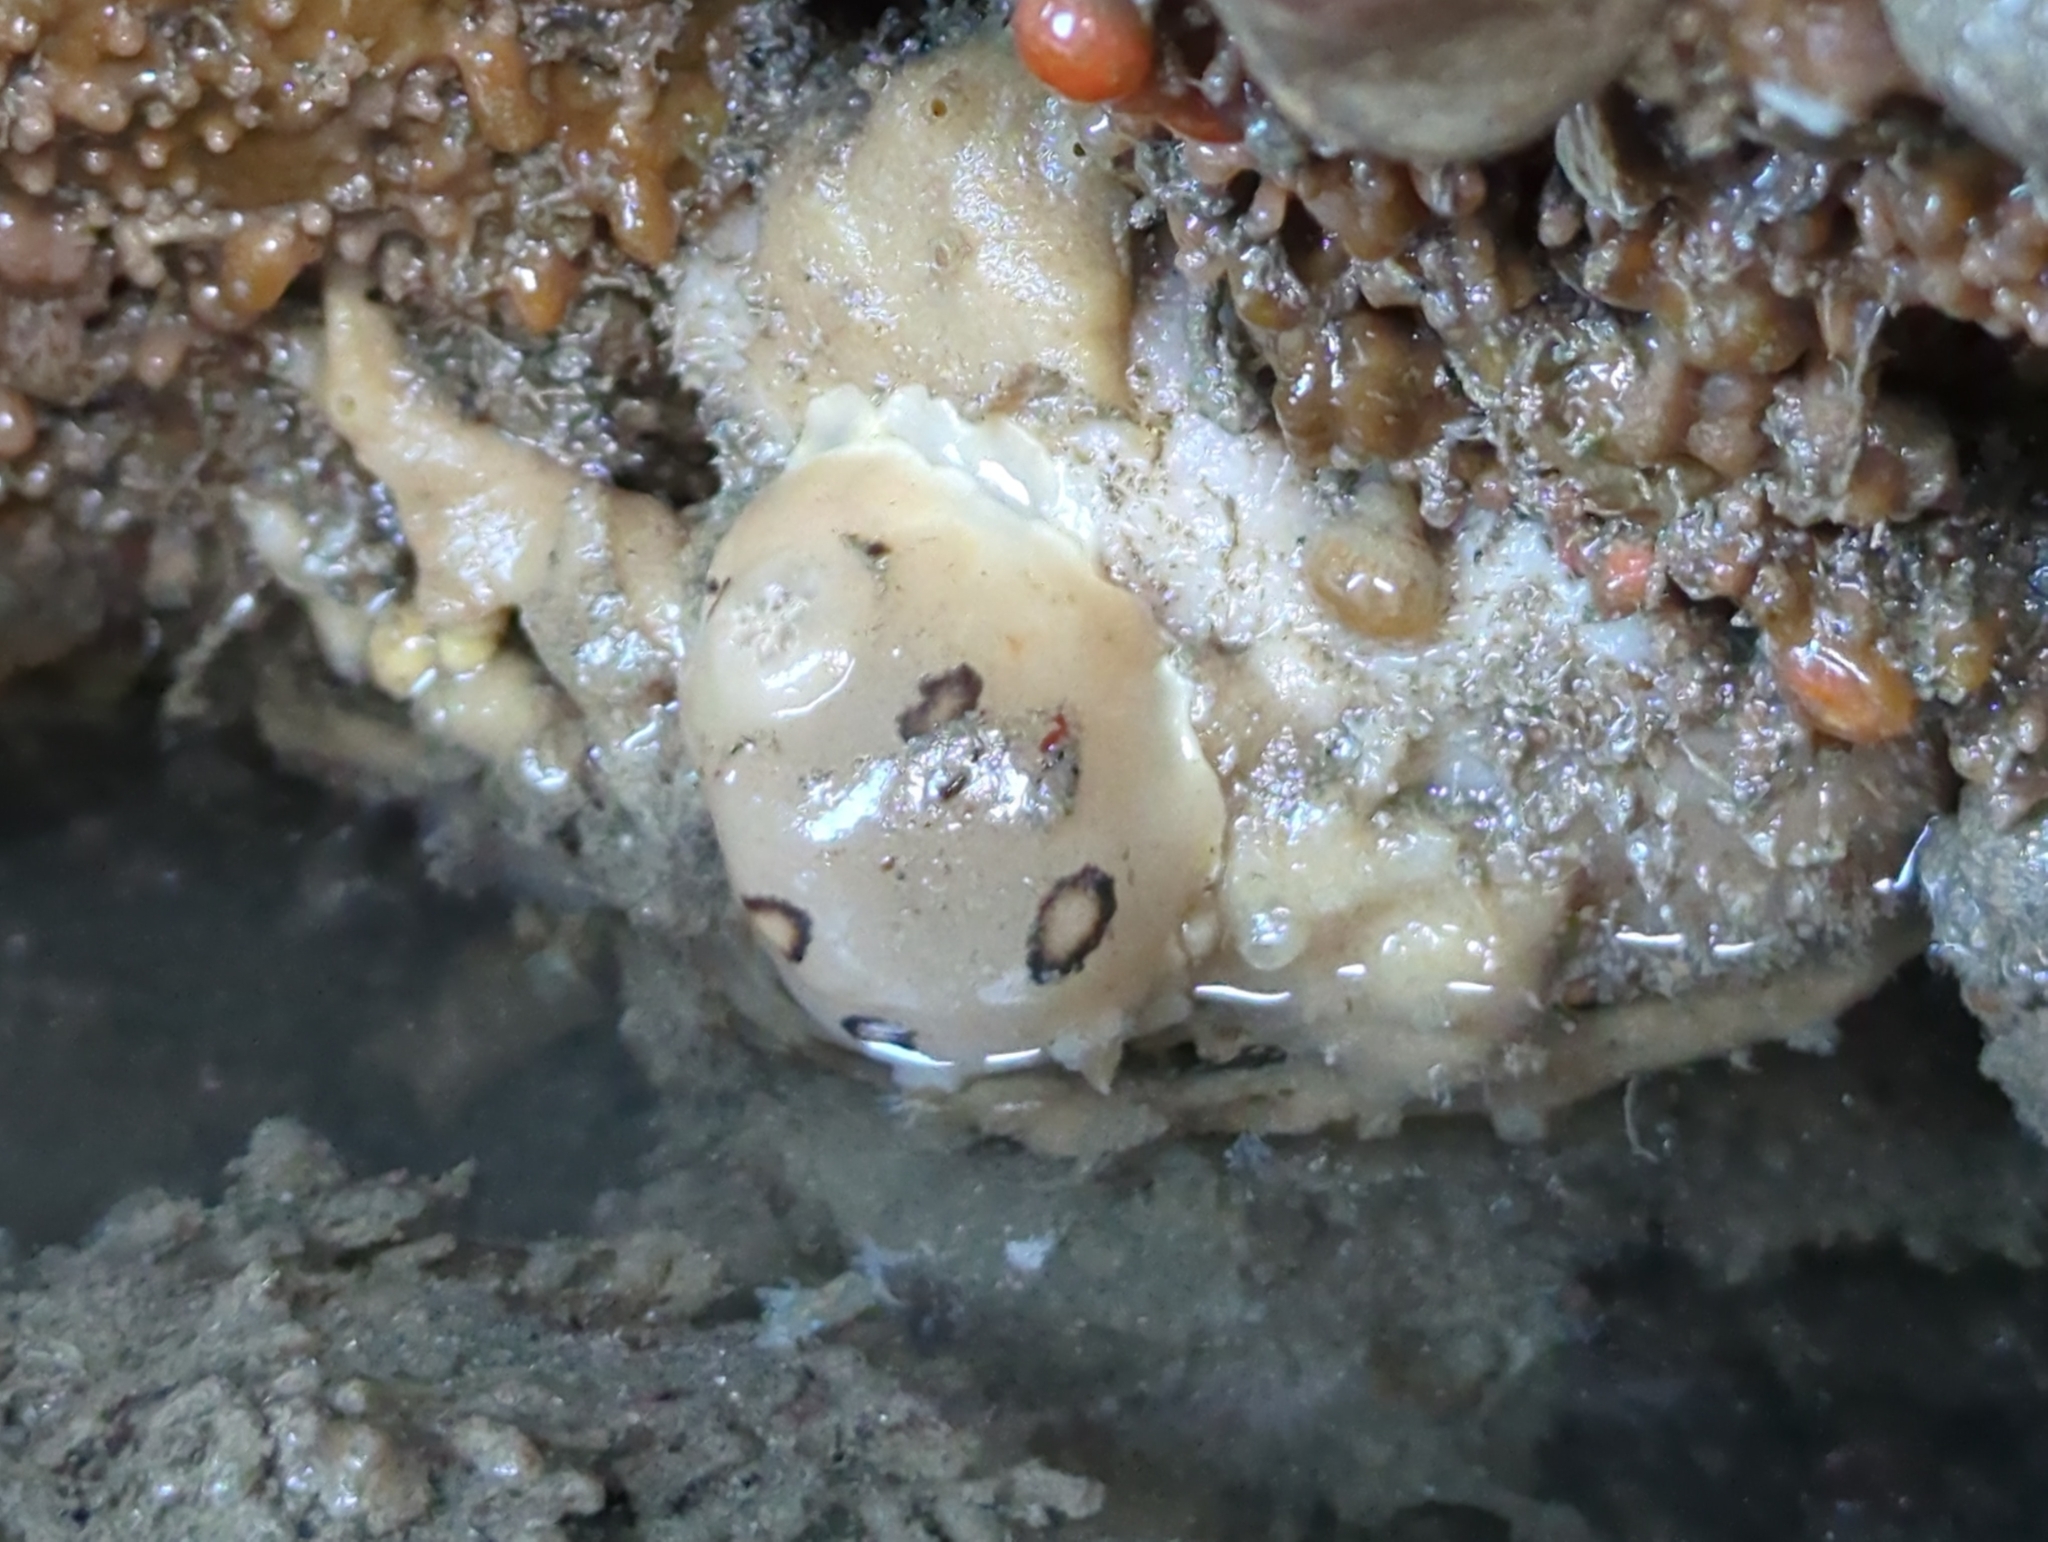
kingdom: Animalia
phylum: Mollusca
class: Gastropoda
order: Nudibranchia
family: Discodorididae
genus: Diaulula
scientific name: Diaulula sandiegensis
